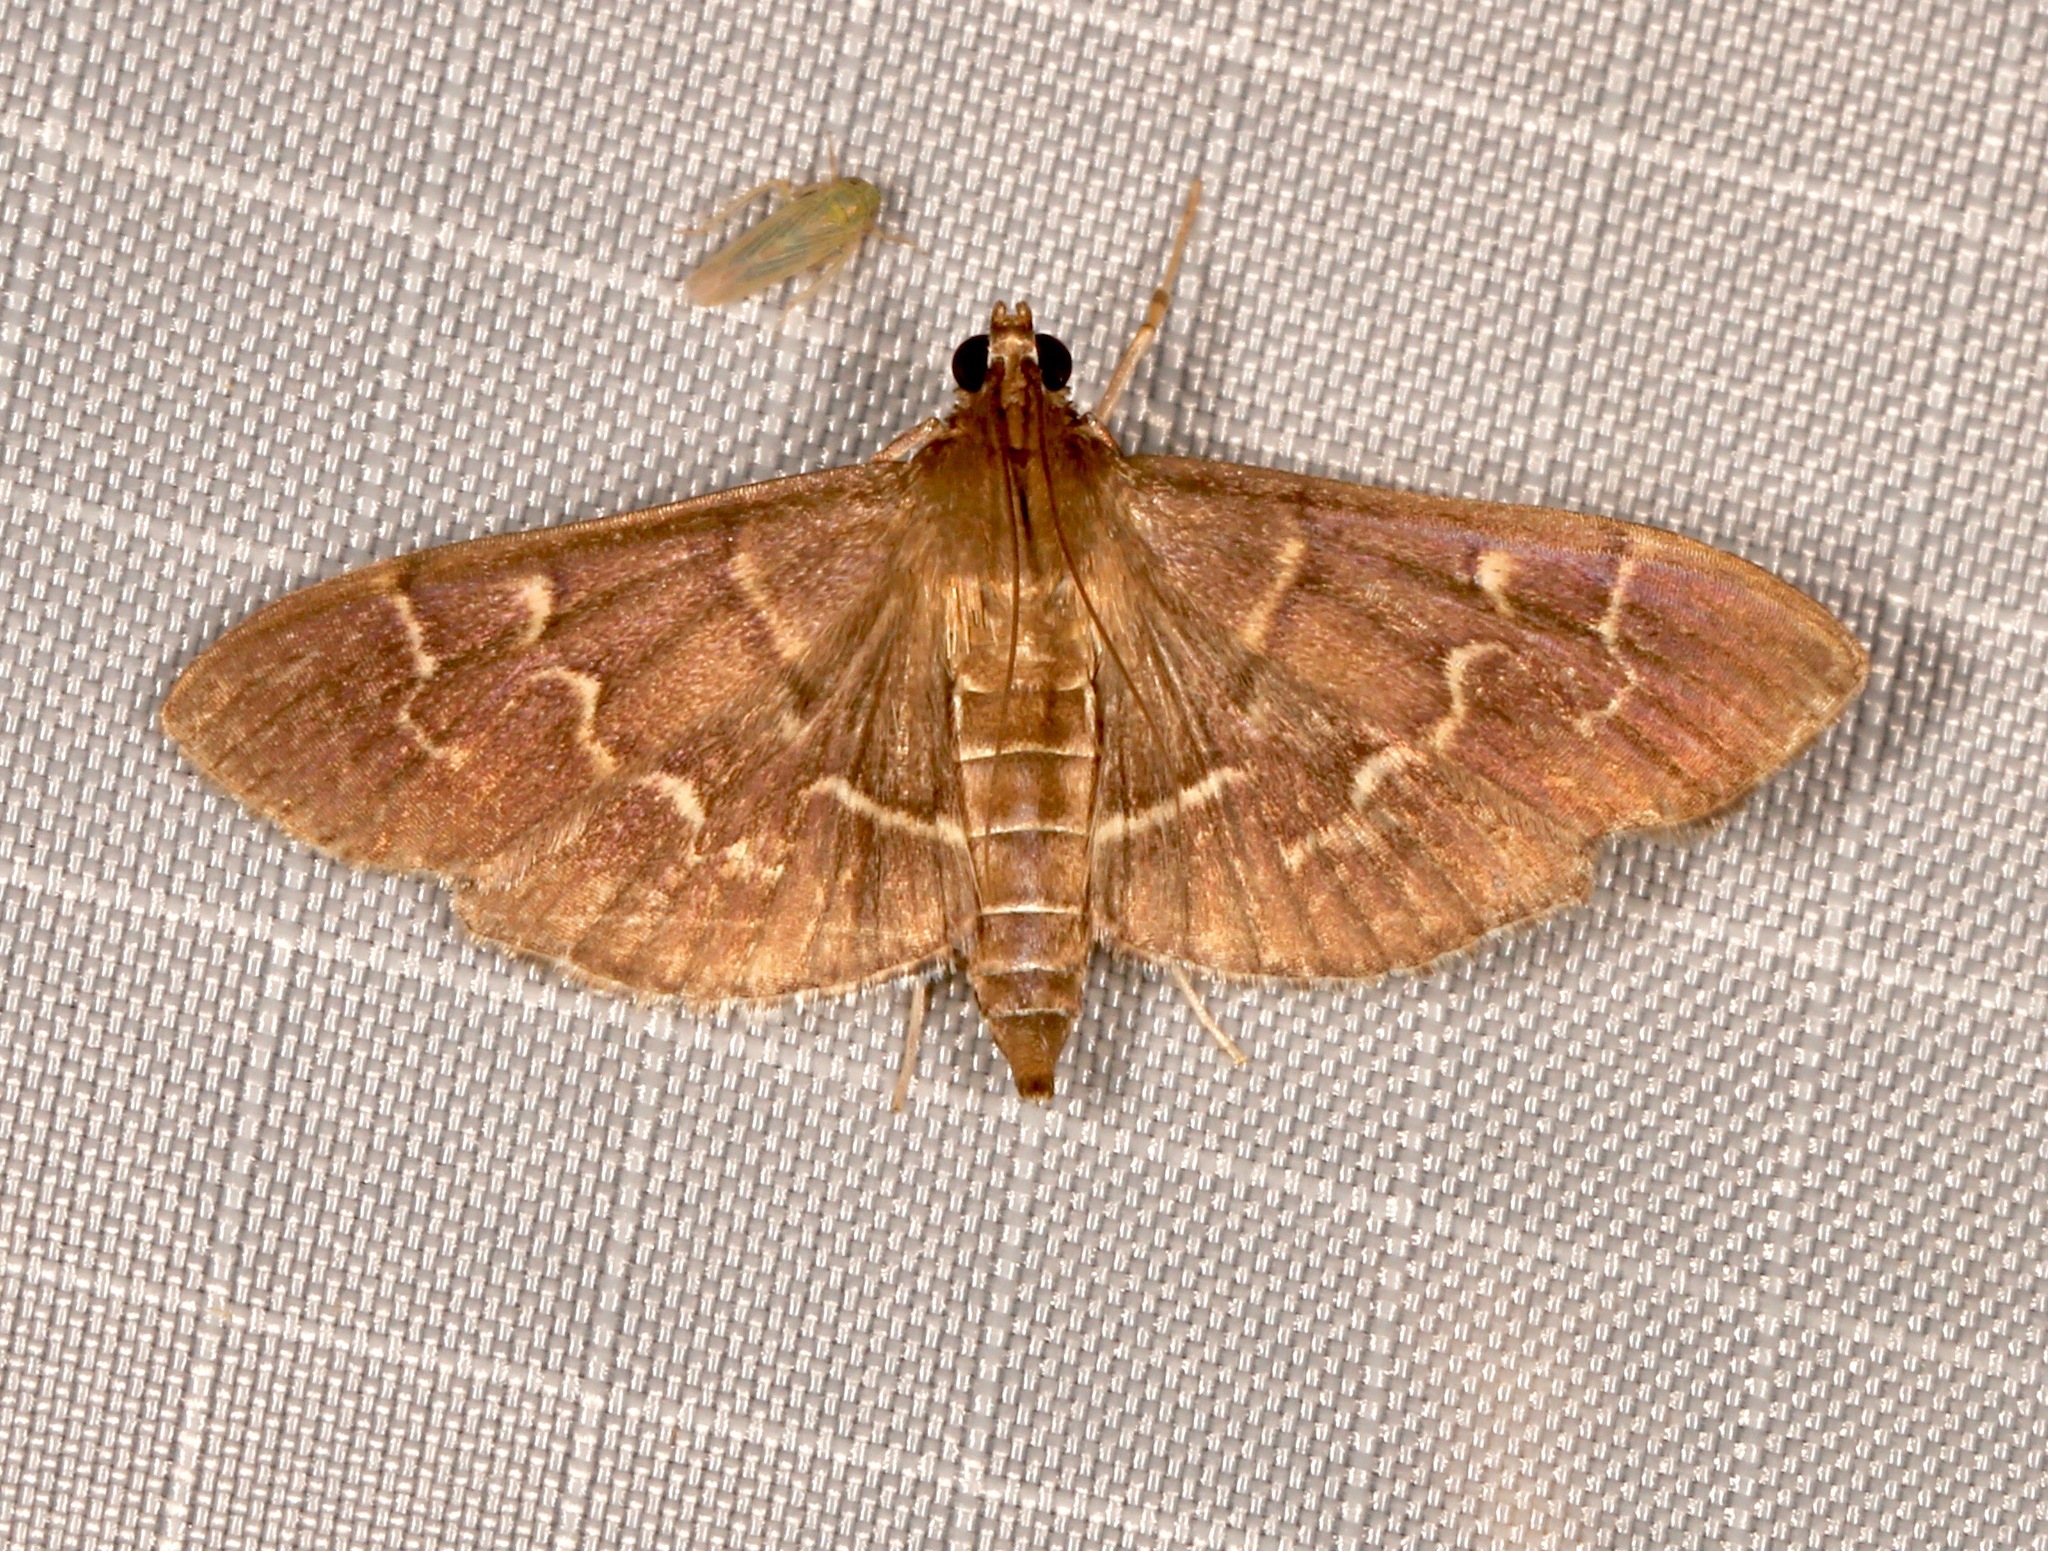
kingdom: Animalia
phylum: Arthropoda
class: Insecta
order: Lepidoptera
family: Crambidae
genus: Pilocrocis
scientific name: Pilocrocis ramentalis
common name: Scraped pilocrocis
